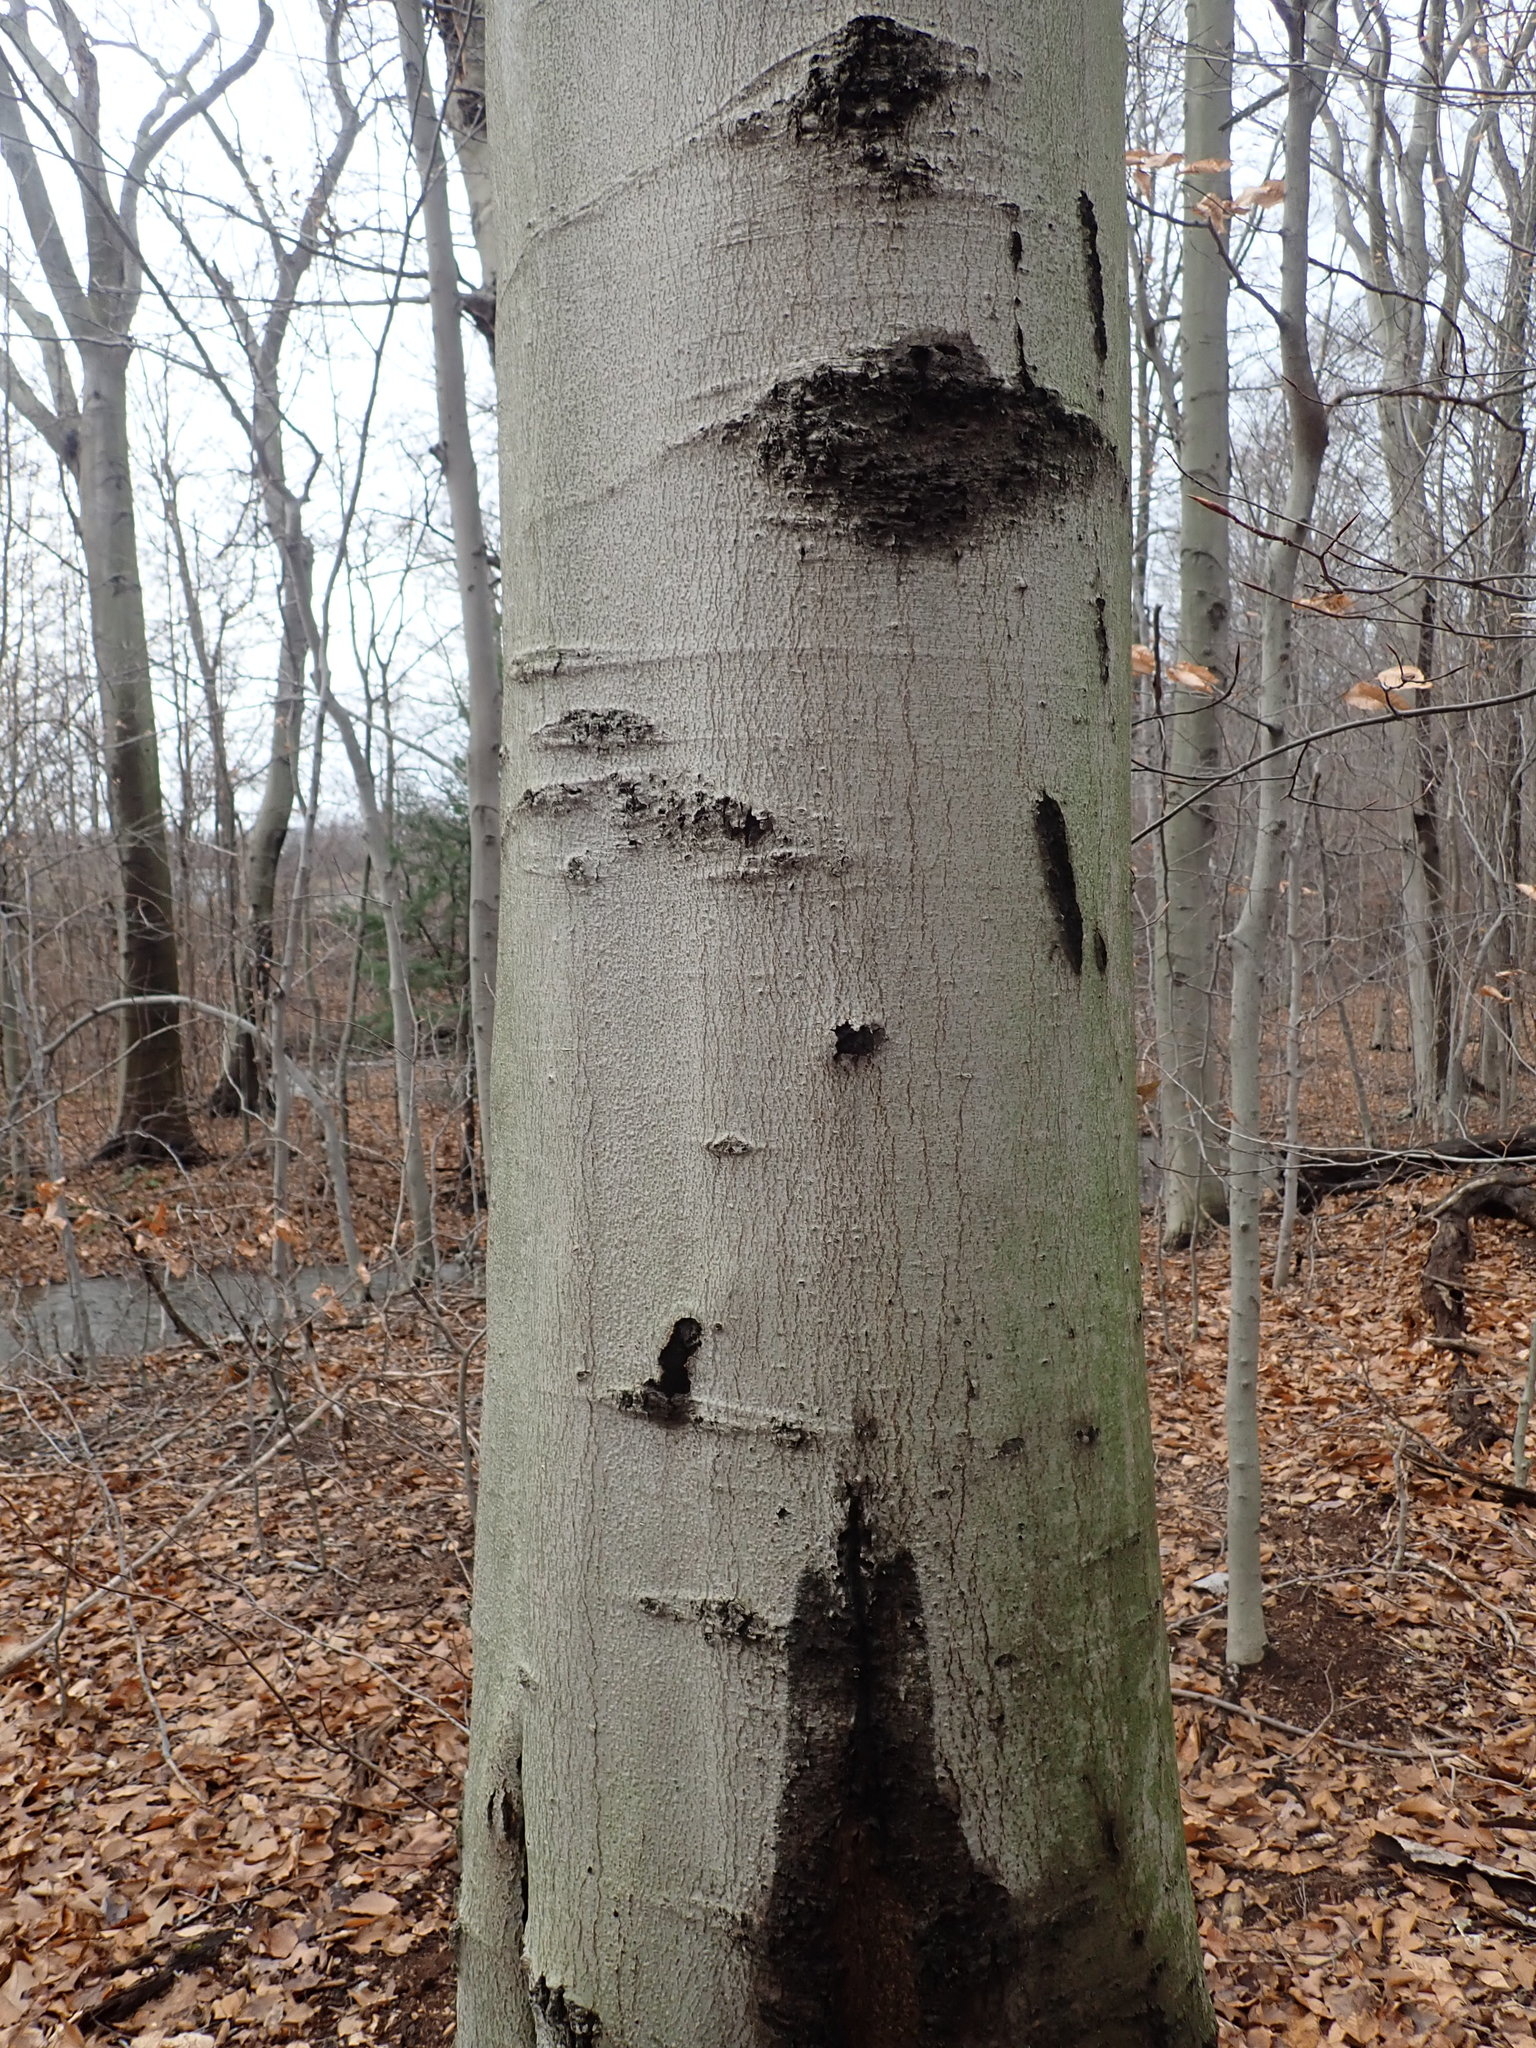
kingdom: Plantae
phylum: Tracheophyta
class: Magnoliopsida
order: Fagales
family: Fagaceae
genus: Fagus
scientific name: Fagus grandifolia
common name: American beech
